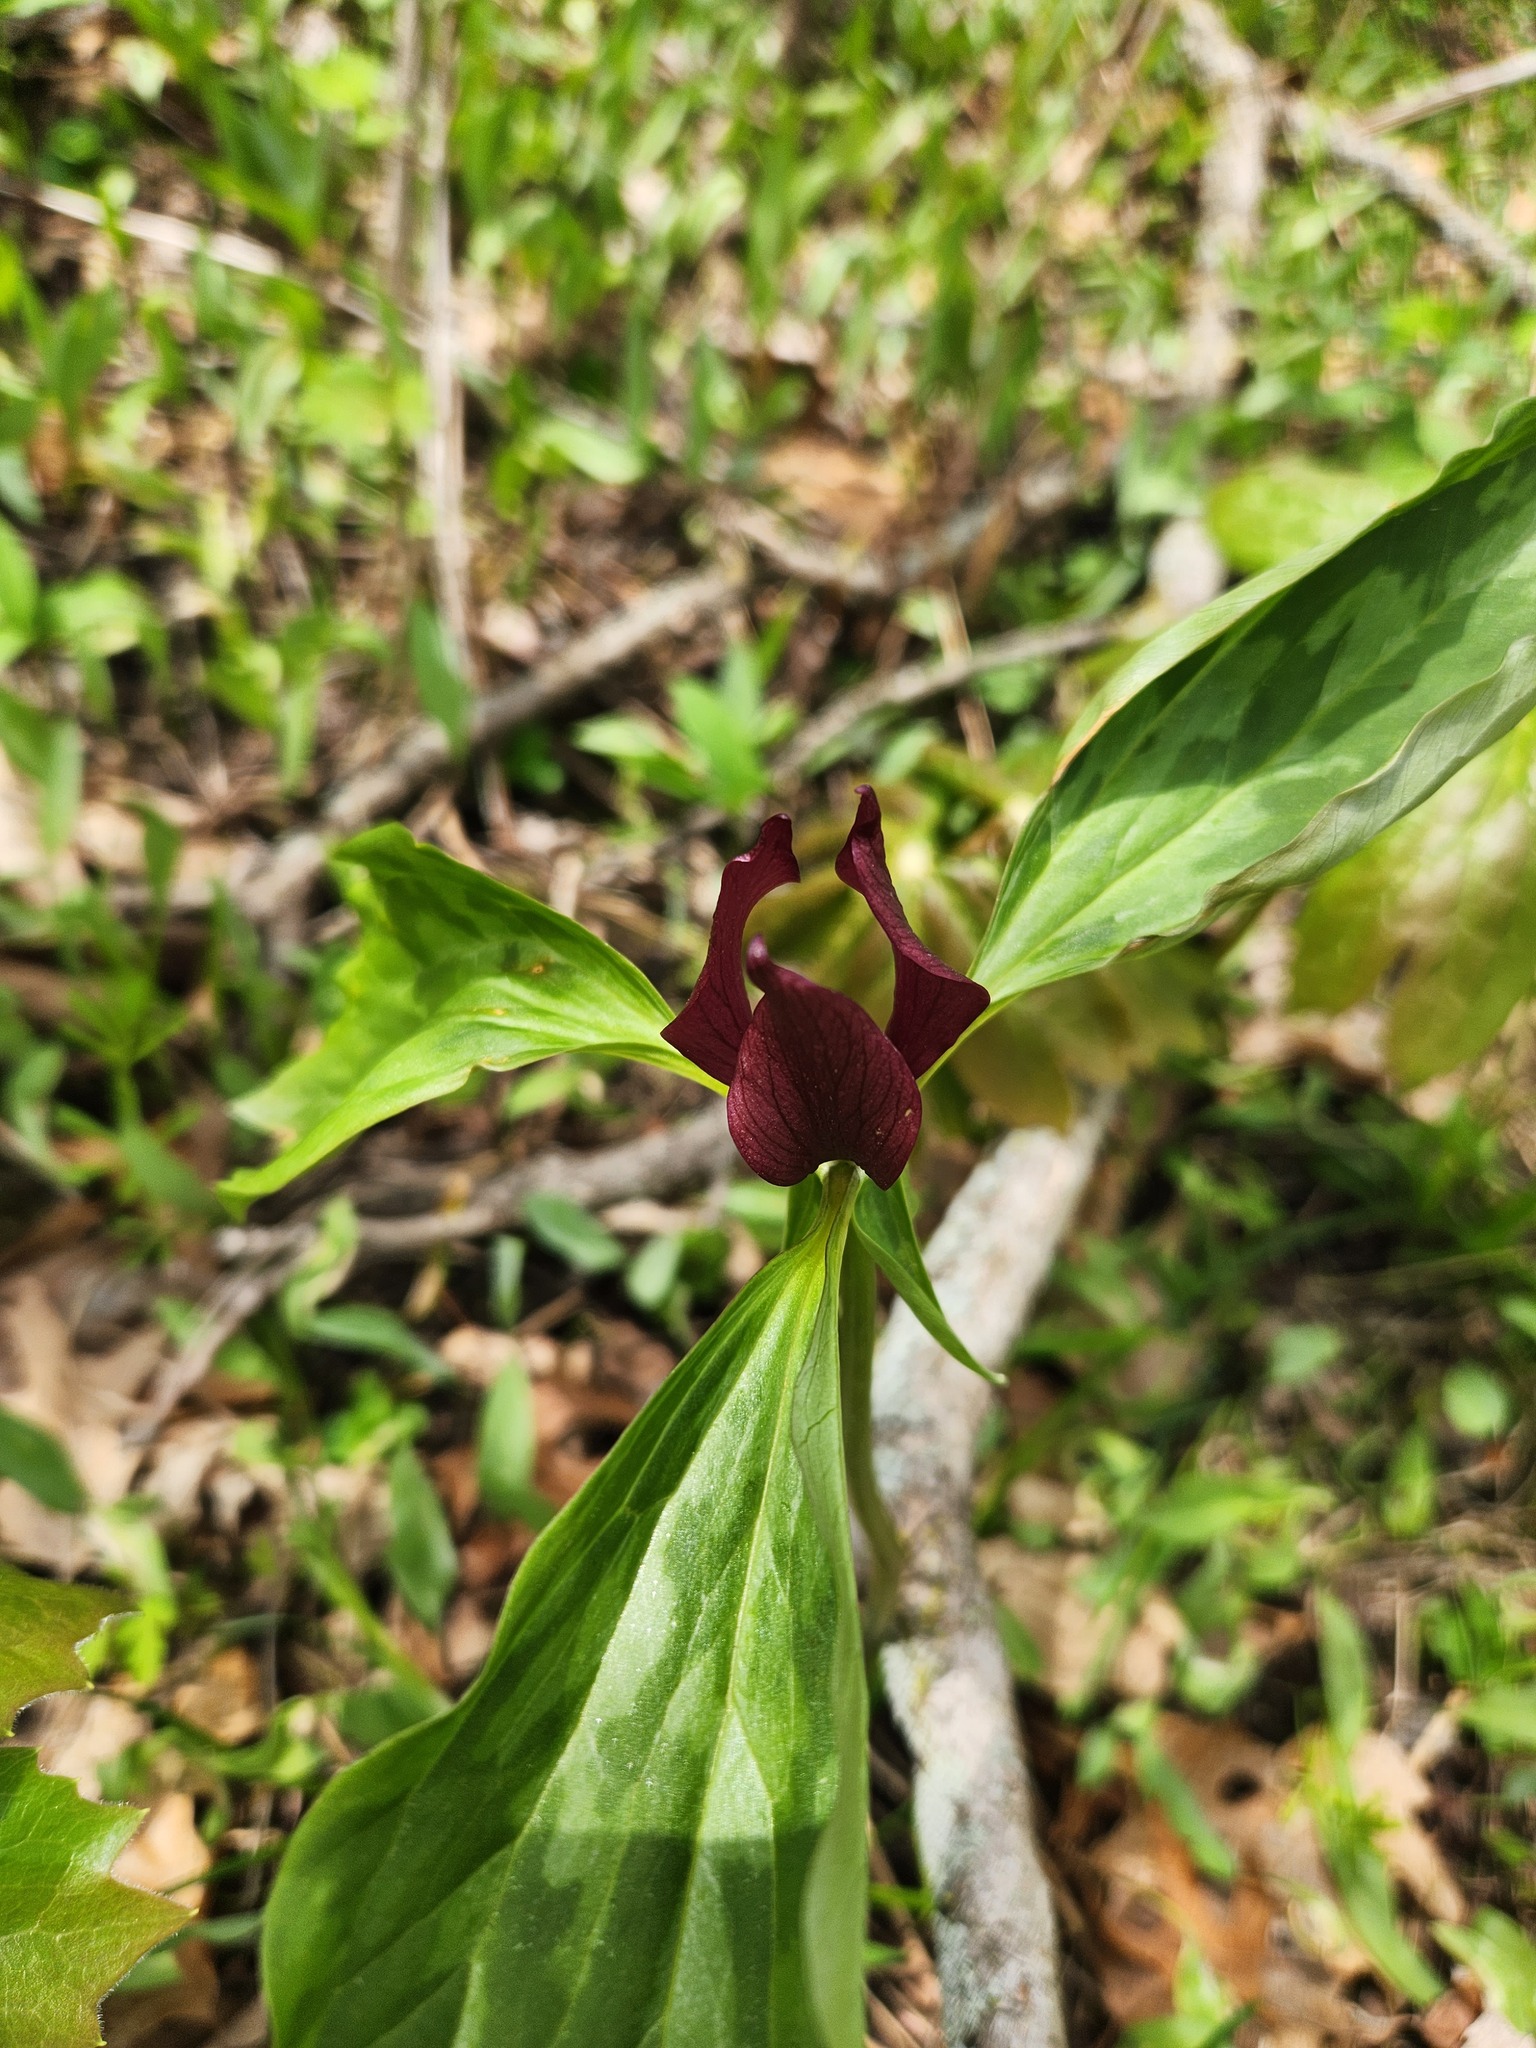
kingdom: Plantae
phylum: Tracheophyta
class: Liliopsida
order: Liliales
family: Melanthiaceae
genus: Trillium
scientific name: Trillium recurvatum
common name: Bloody butcher
